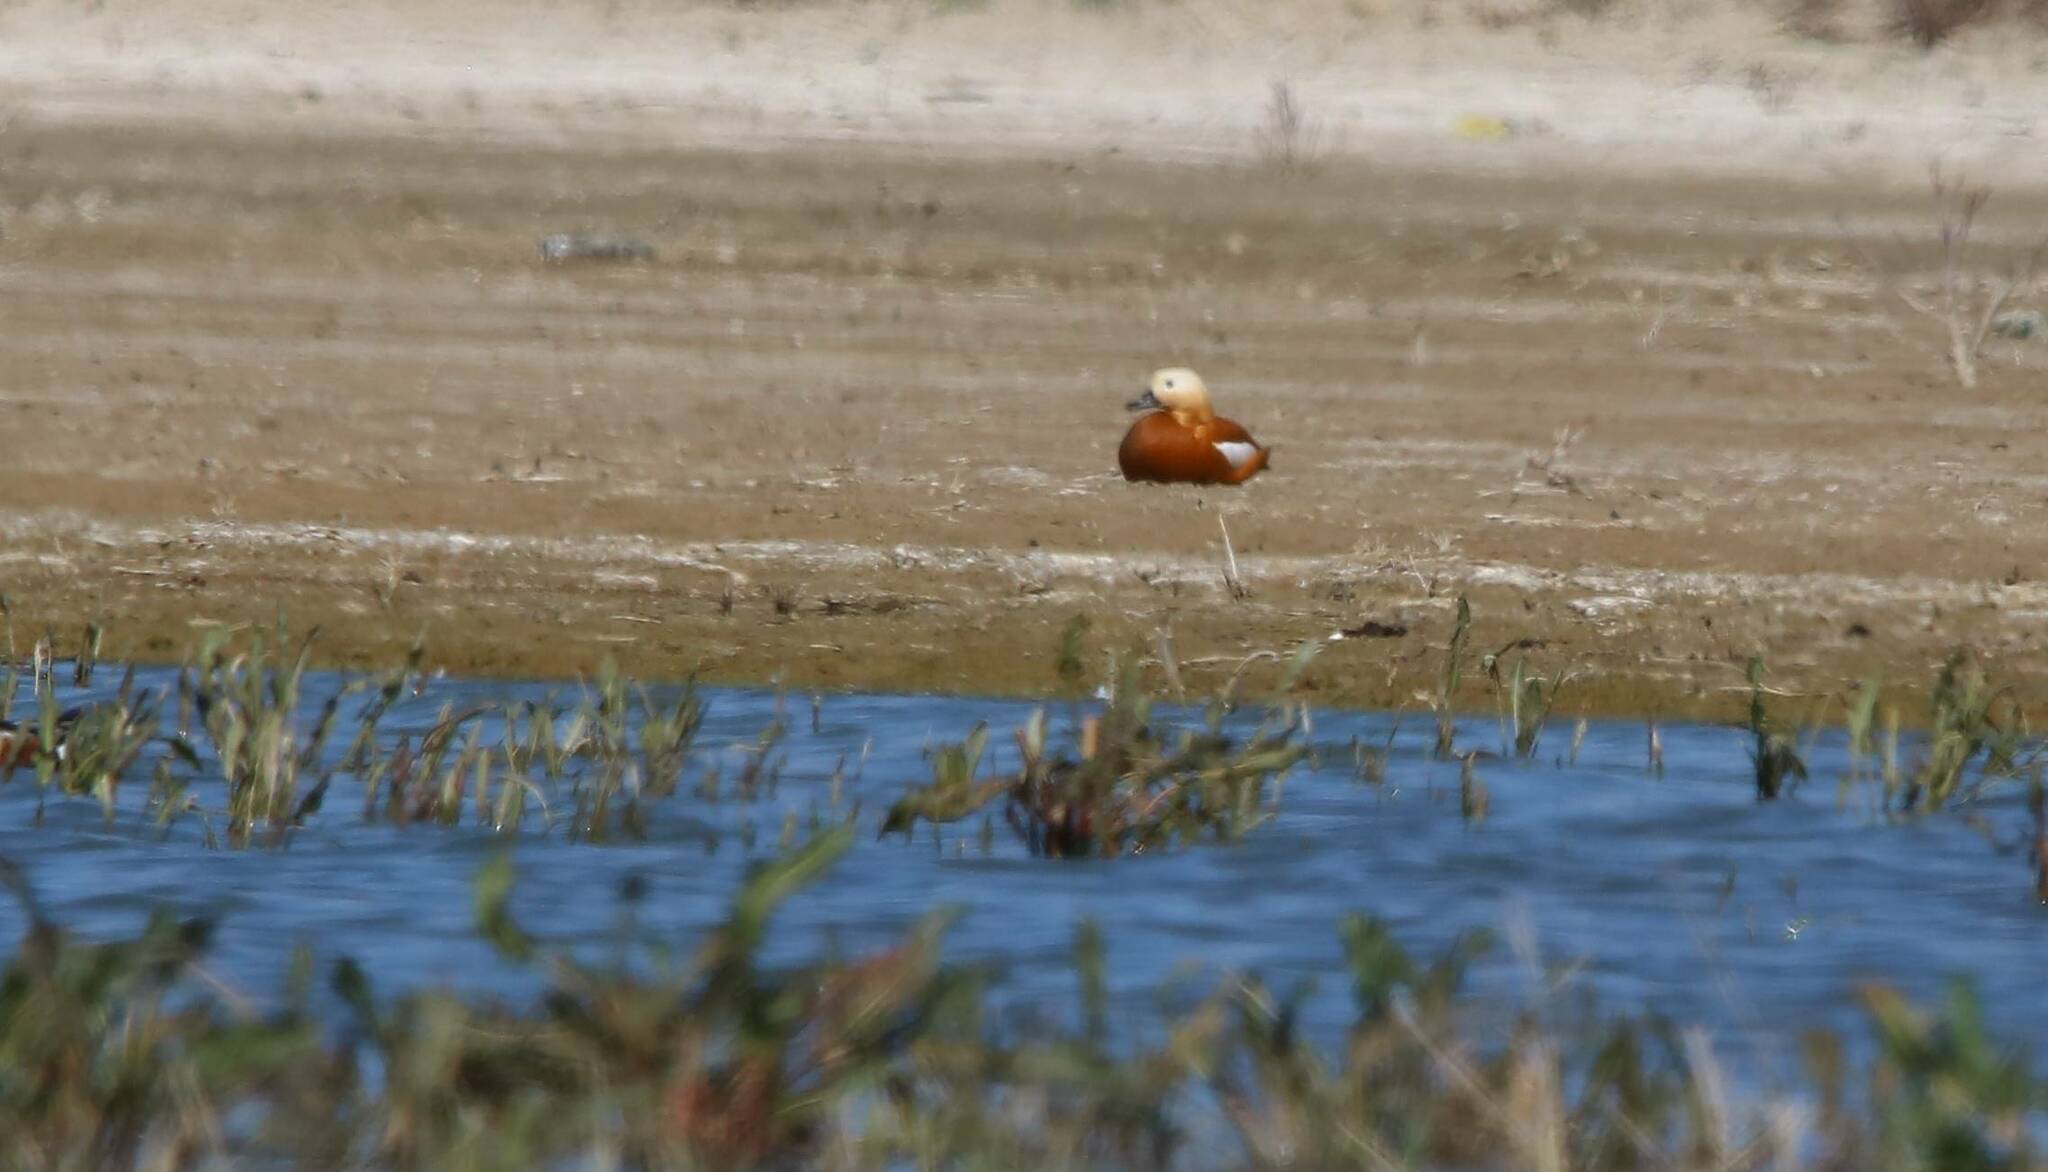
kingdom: Animalia
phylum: Chordata
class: Aves
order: Anseriformes
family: Anatidae
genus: Tadorna
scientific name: Tadorna ferruginea
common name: Ruddy shelduck
